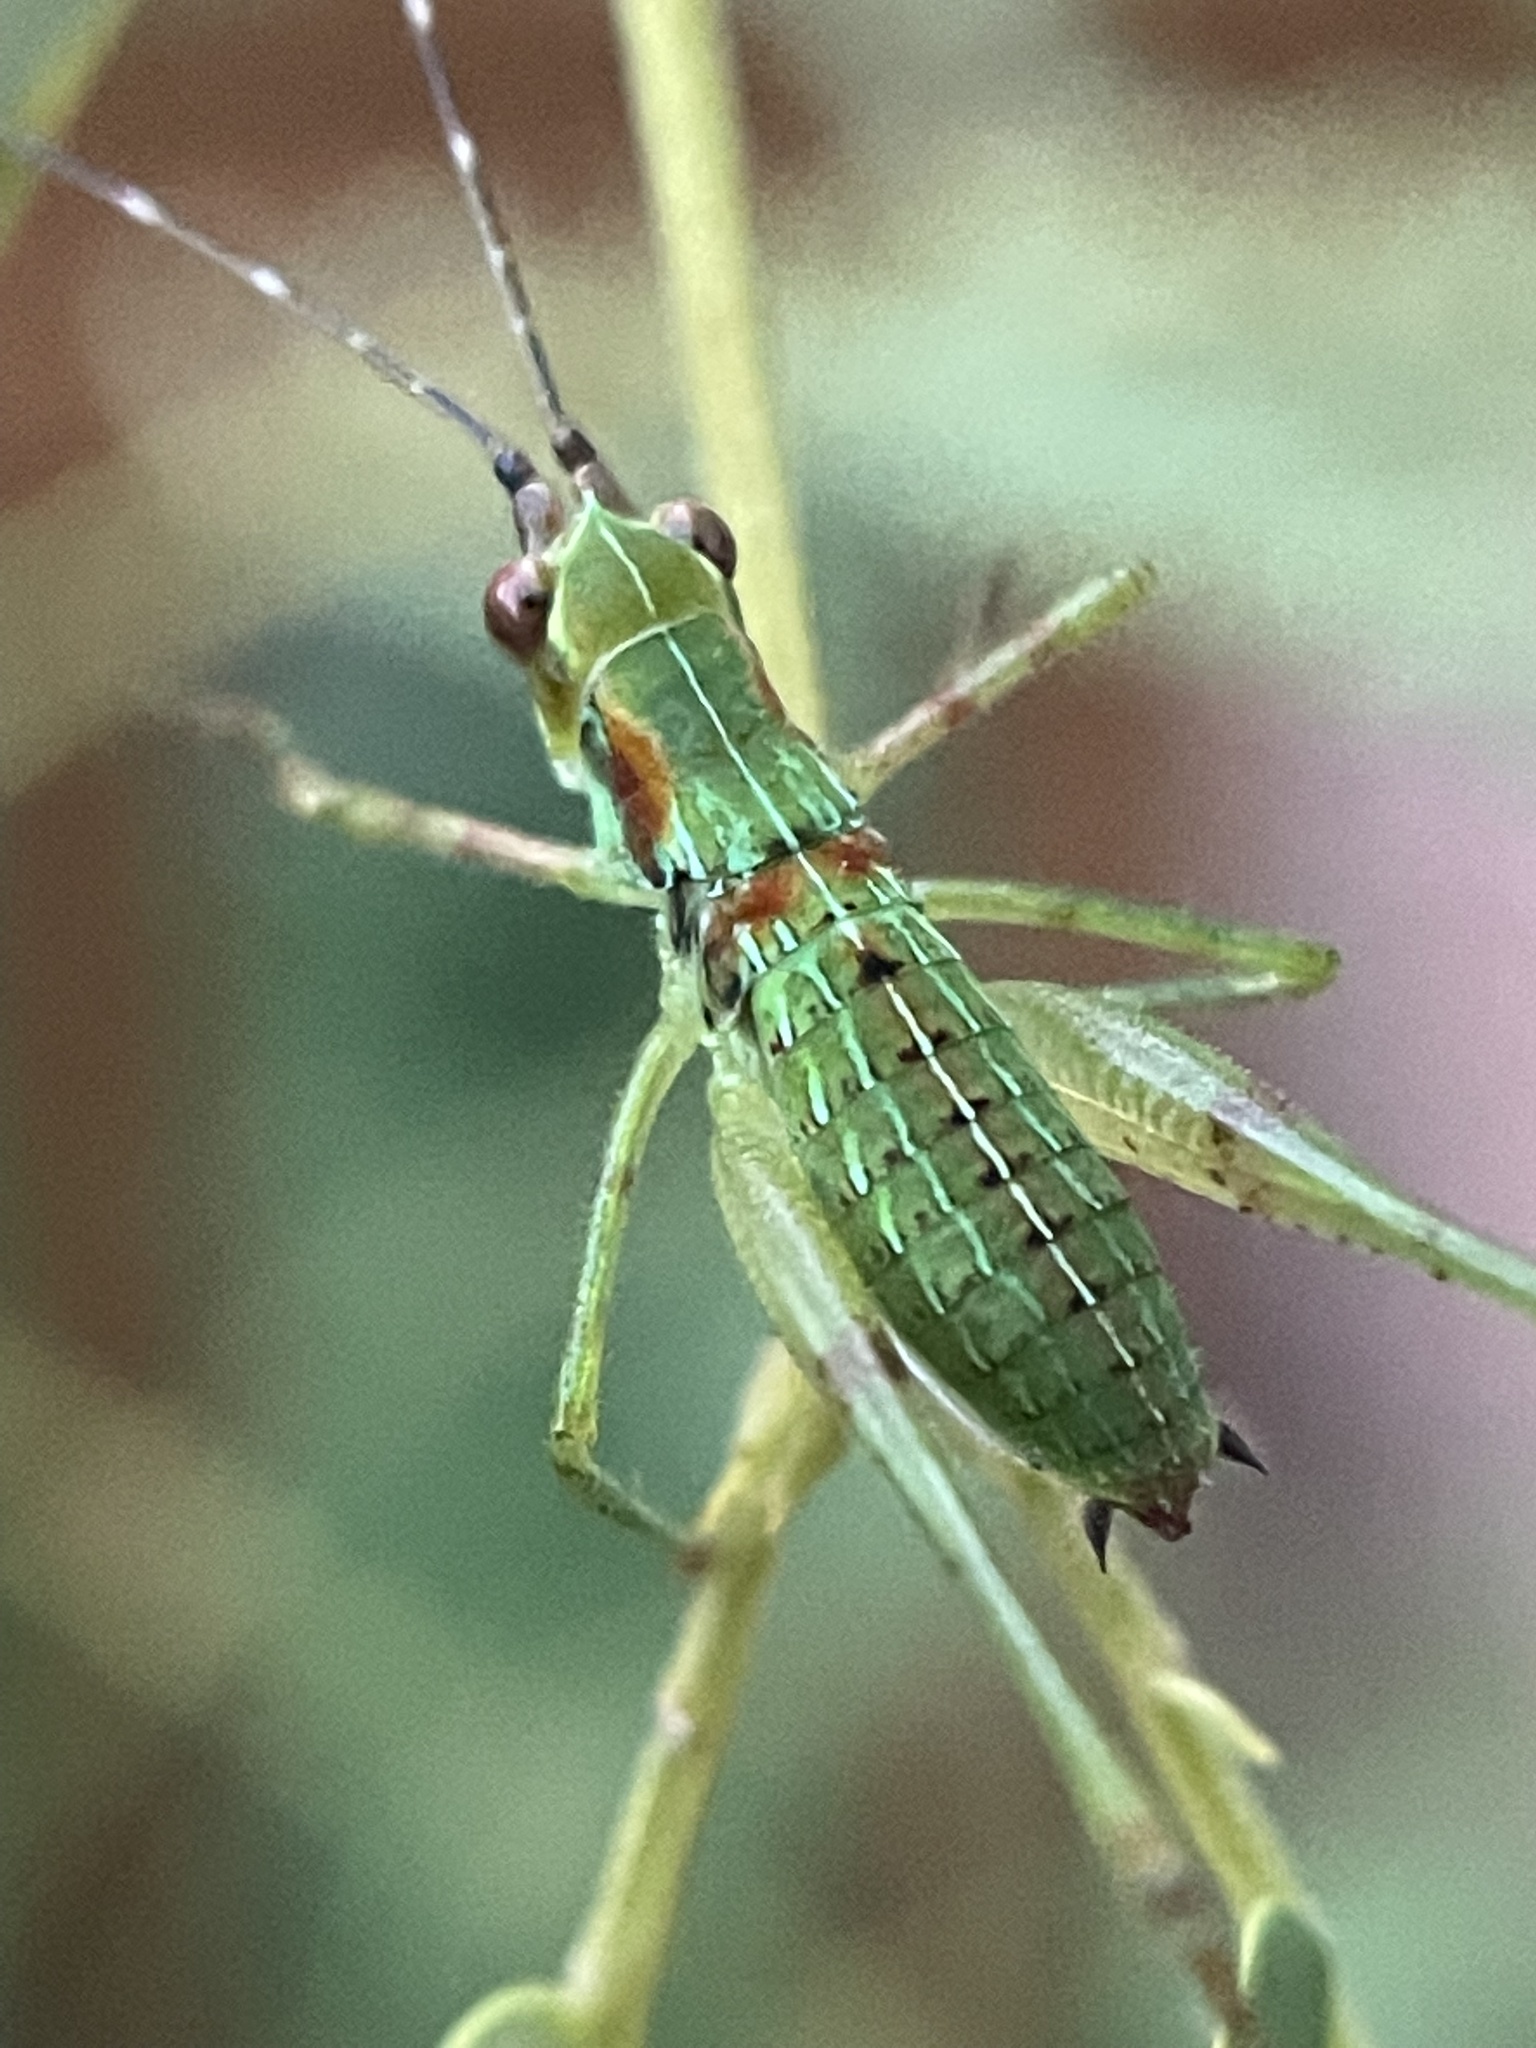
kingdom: Animalia
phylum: Arthropoda
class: Insecta
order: Orthoptera
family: Tettigoniidae
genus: Scudderia
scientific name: Scudderia furcata
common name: Fork-tailed bush katydid
